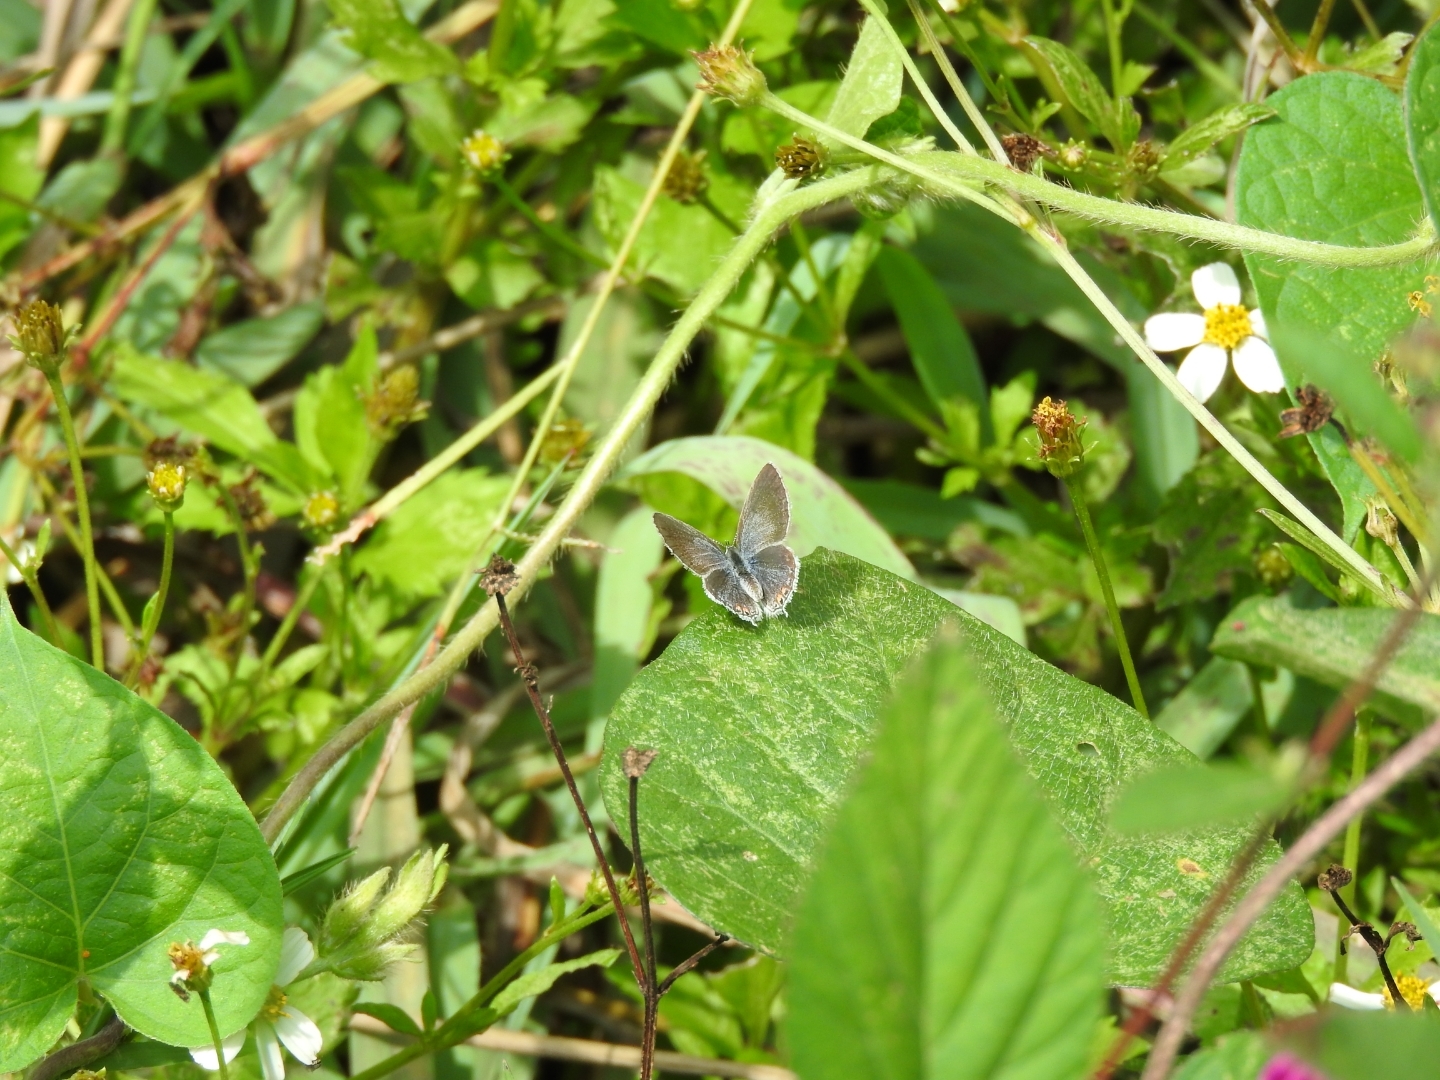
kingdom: Animalia
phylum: Arthropoda
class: Insecta
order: Lepidoptera
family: Lycaenidae
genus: Elkalyce
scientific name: Elkalyce texana
